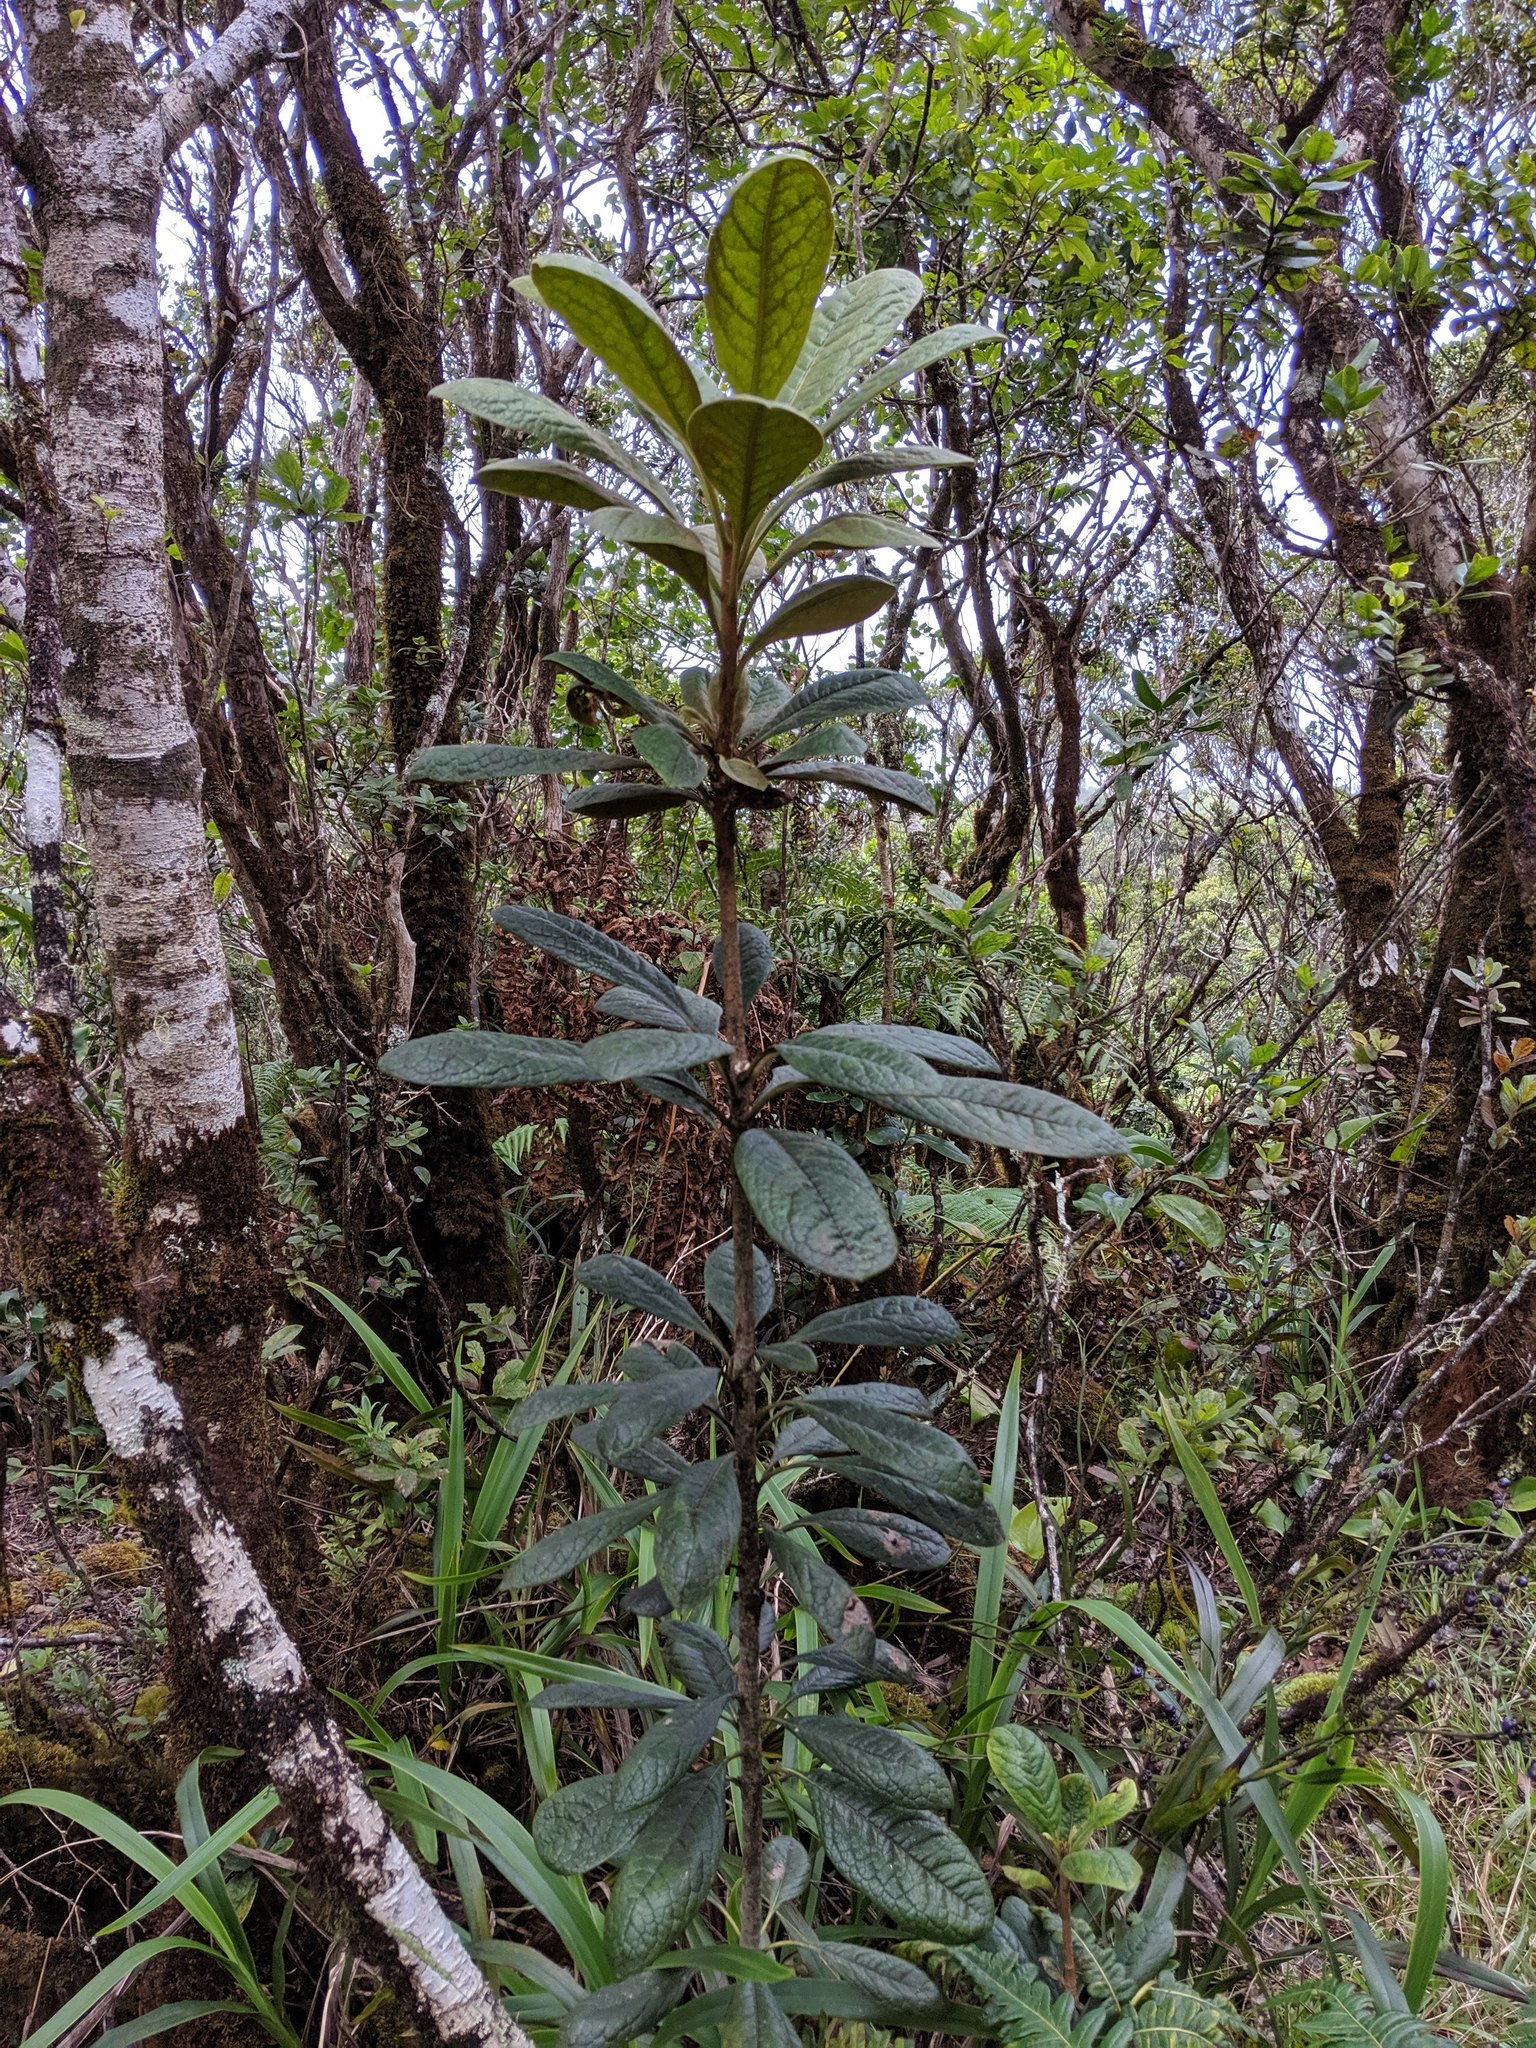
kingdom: Plantae
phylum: Tracheophyta
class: Magnoliopsida
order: Apiales
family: Pittosporaceae
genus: Pittosporum
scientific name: Pittosporum gayanum
